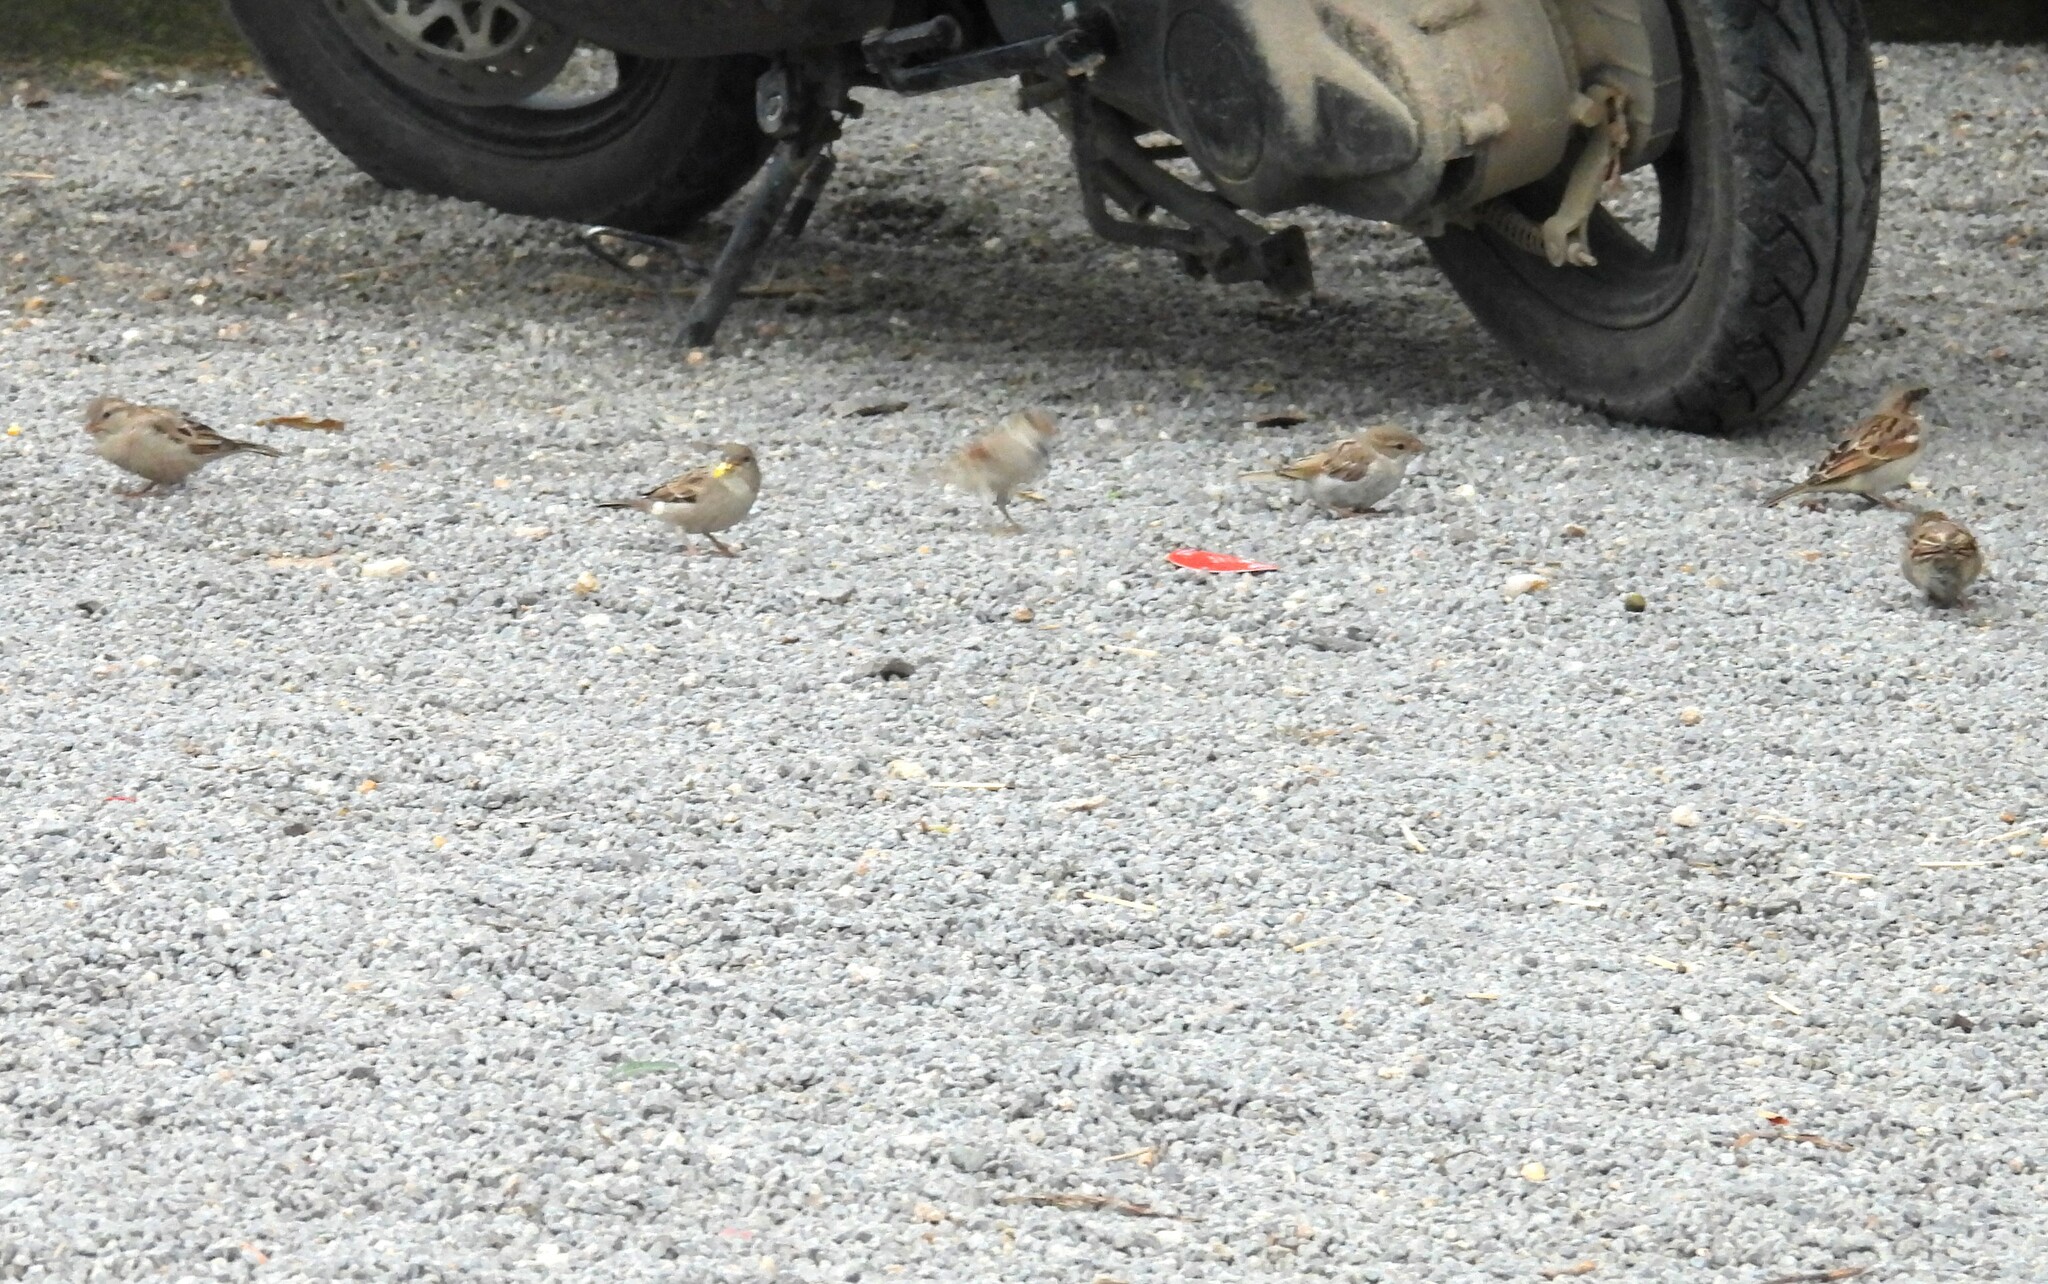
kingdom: Animalia
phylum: Chordata
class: Aves
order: Passeriformes
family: Passeridae
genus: Passer
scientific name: Passer domesticus
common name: House sparrow
